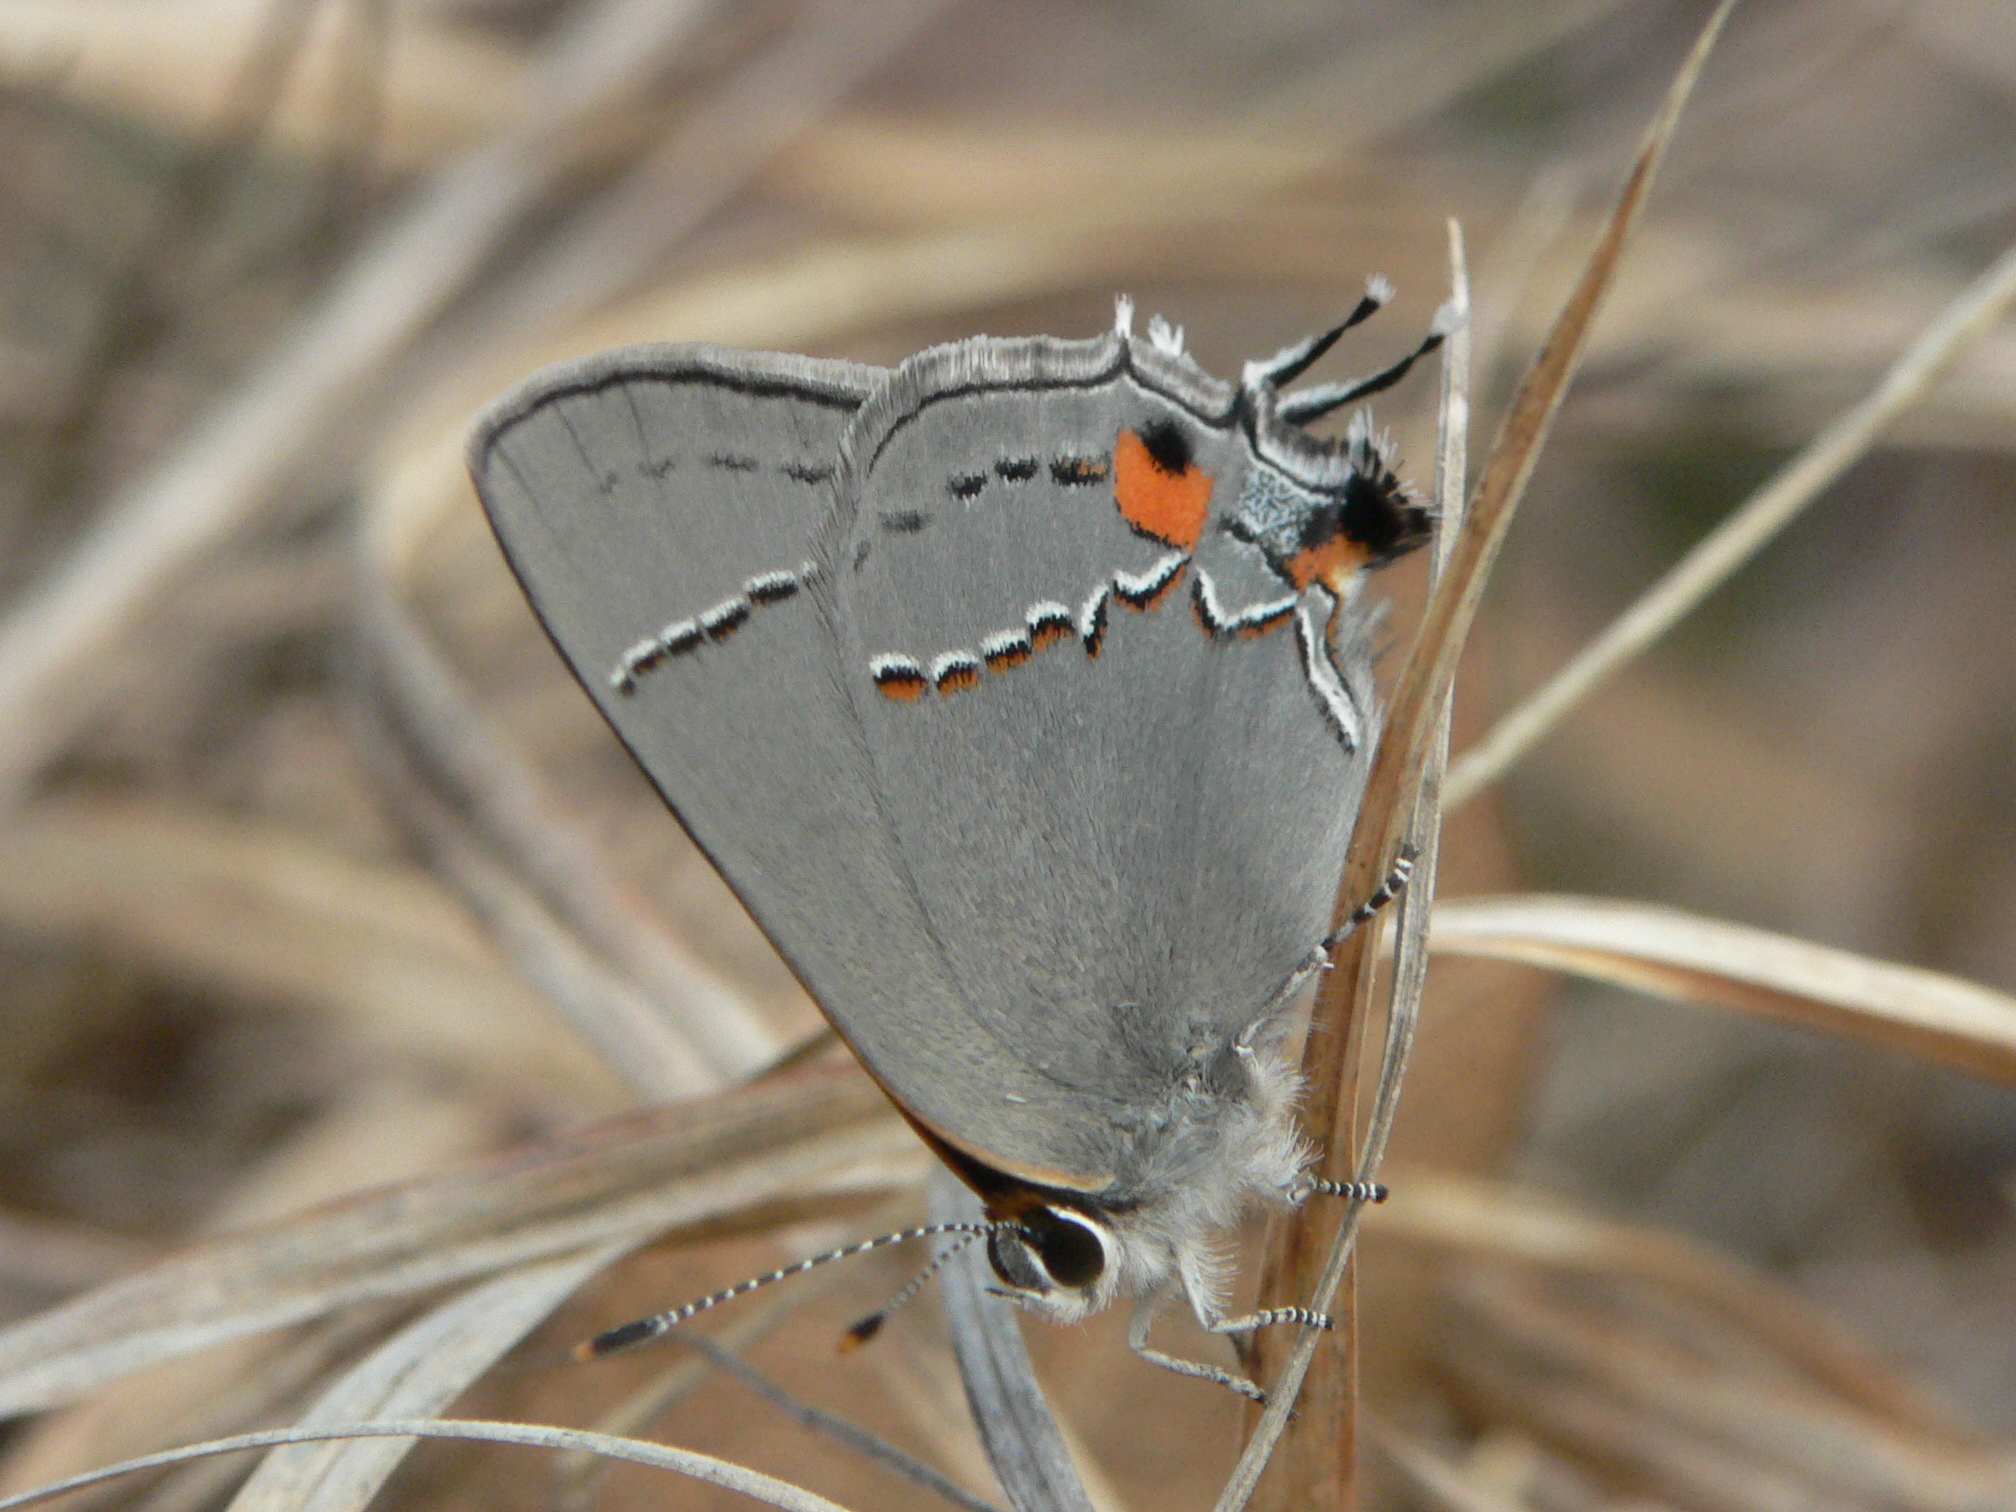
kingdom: Animalia
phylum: Arthropoda
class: Insecta
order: Lepidoptera
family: Lycaenidae
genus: Strymon
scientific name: Strymon melinus
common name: Gray hairstreak
